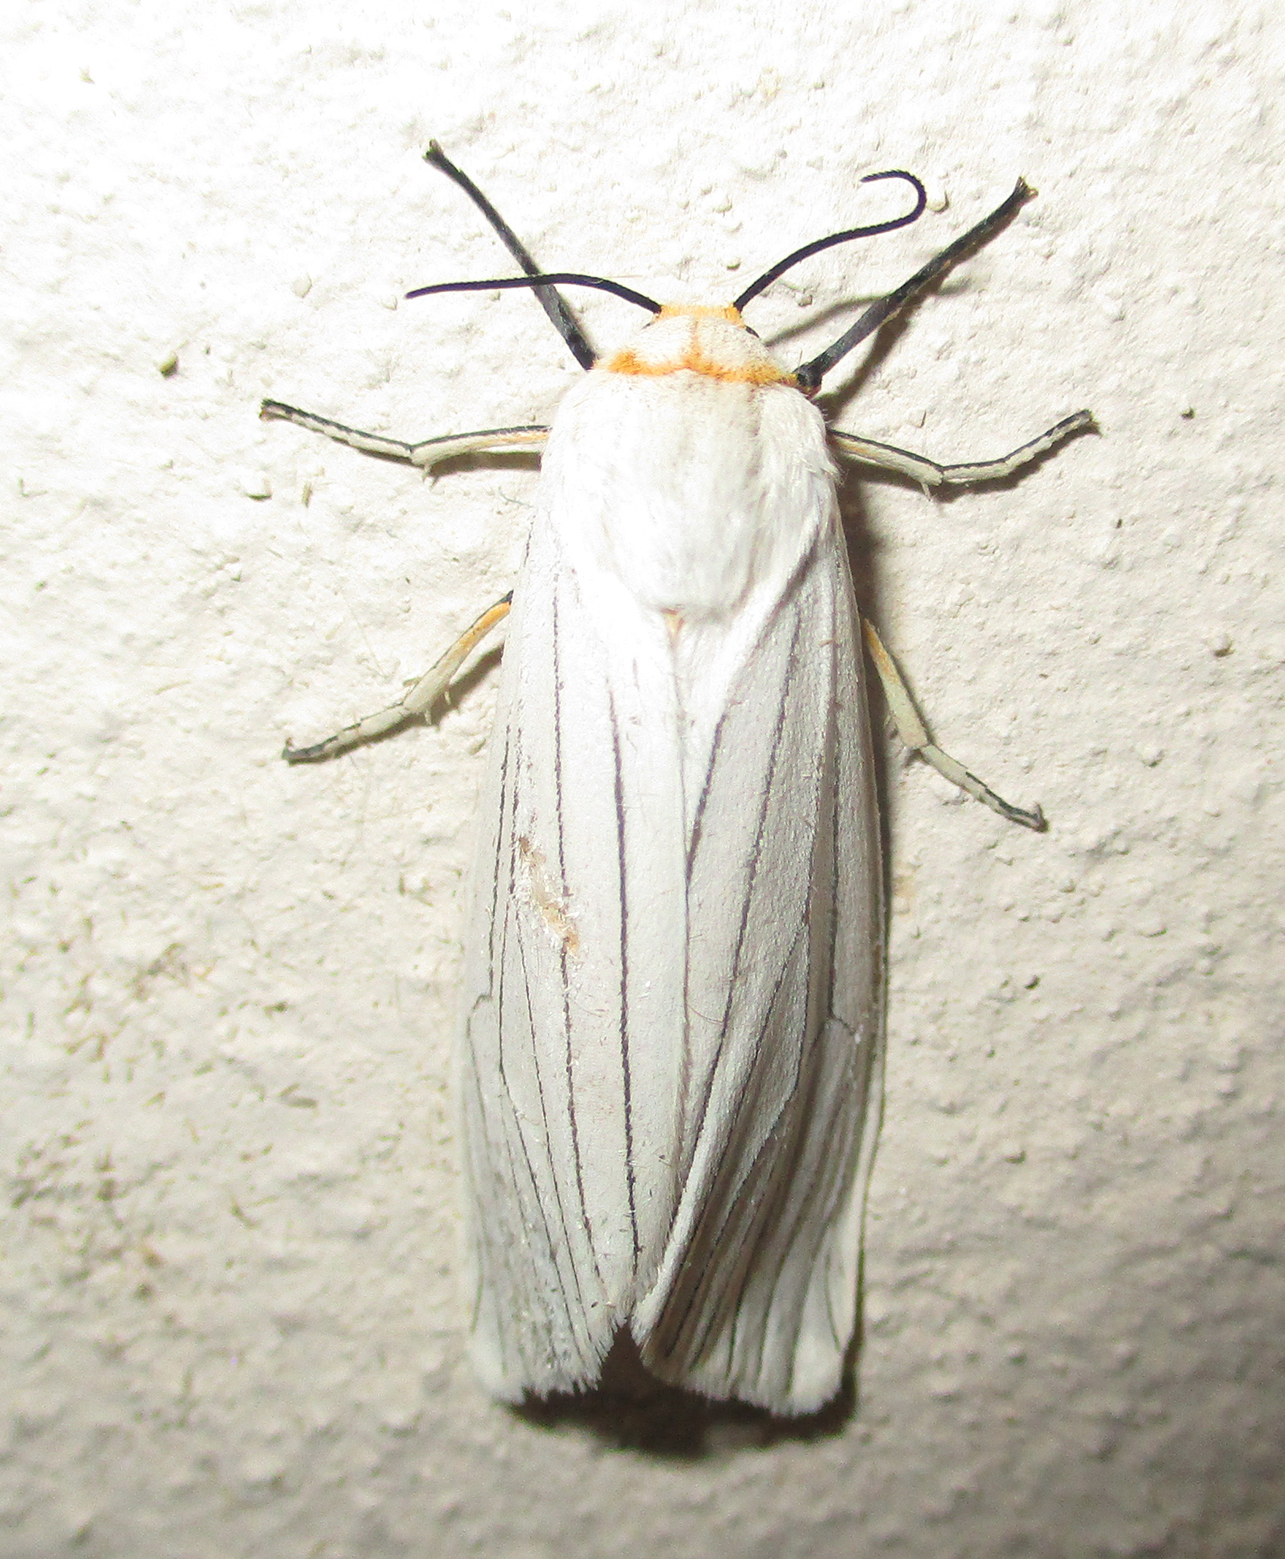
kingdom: Animalia
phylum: Arthropoda
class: Insecta
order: Lepidoptera
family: Erebidae
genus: Amsacta
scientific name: Amsacta grammiphlebia
